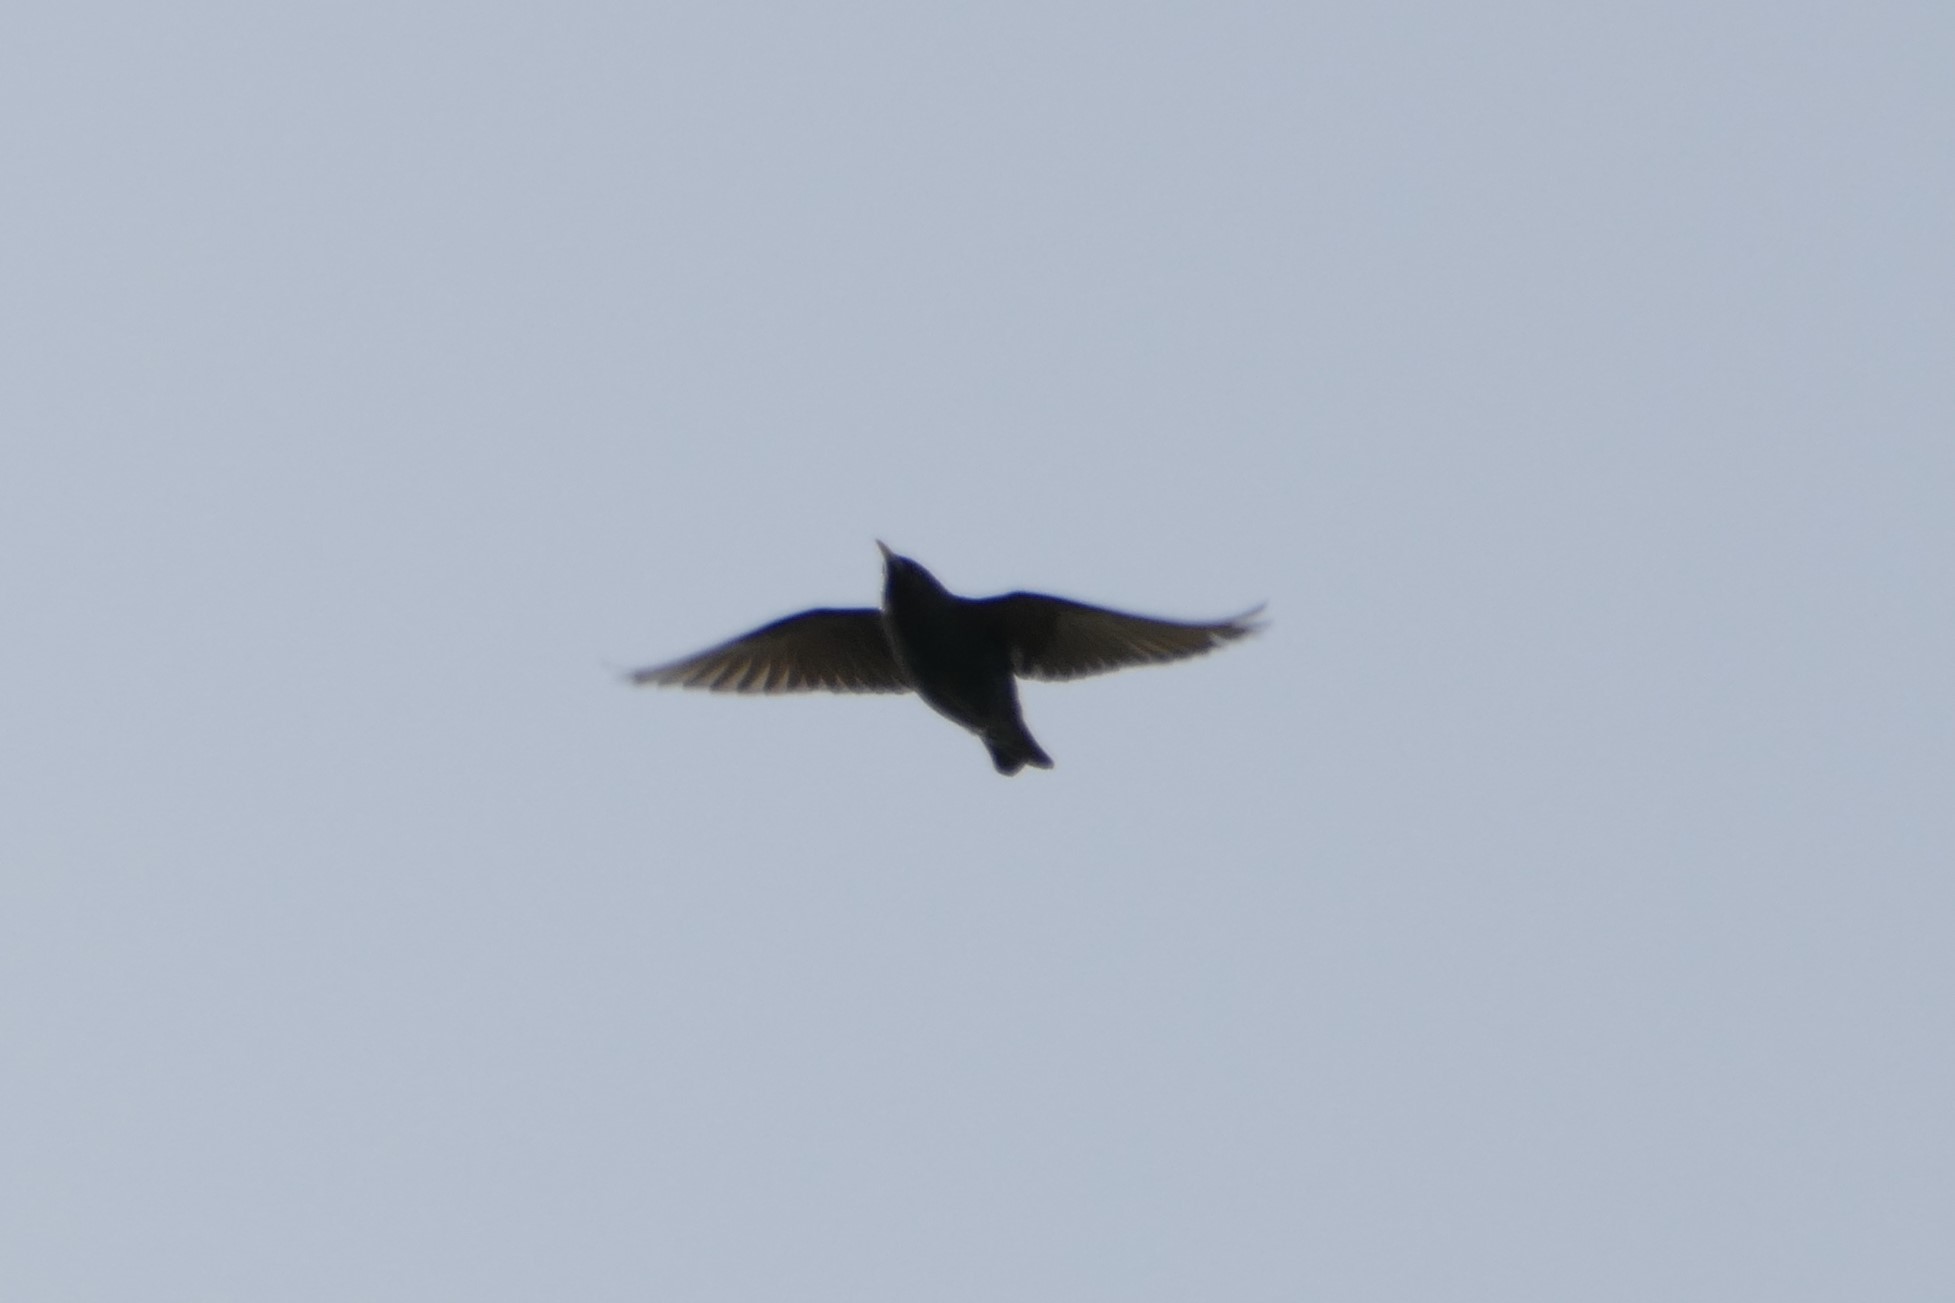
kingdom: Animalia
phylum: Chordata
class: Aves
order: Passeriformes
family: Sturnidae
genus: Sturnus
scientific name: Sturnus unicolor
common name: Spotless starling
